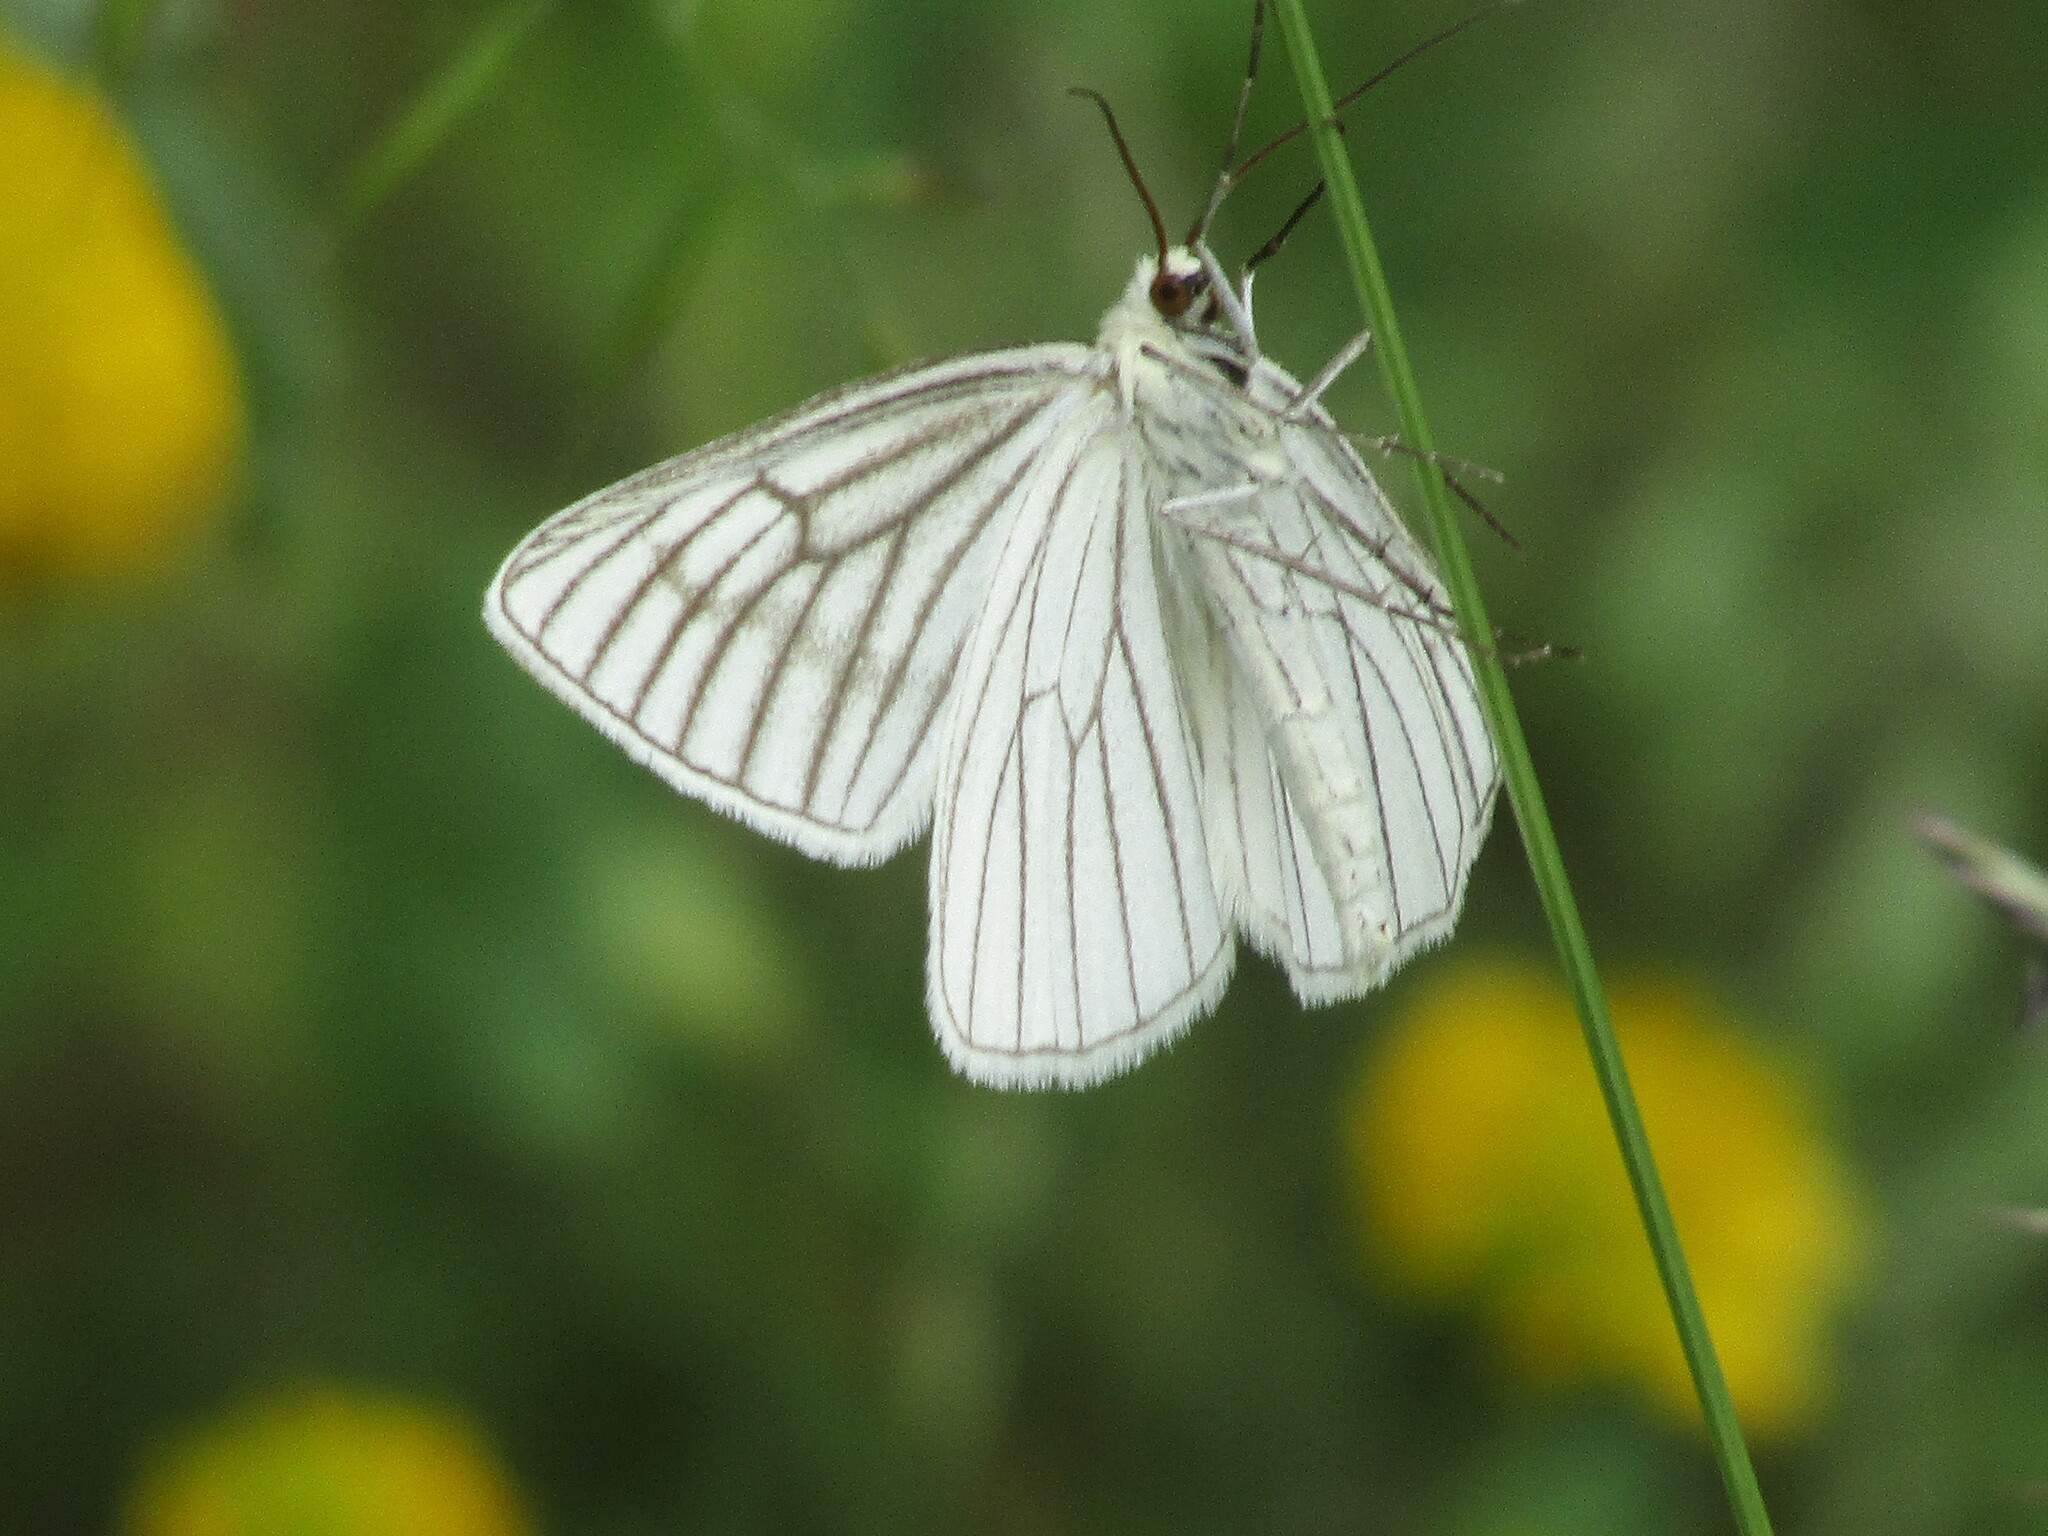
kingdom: Animalia
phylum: Arthropoda
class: Insecta
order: Lepidoptera
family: Geometridae
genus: Siona
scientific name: Siona lineata
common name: Black-veined moth
